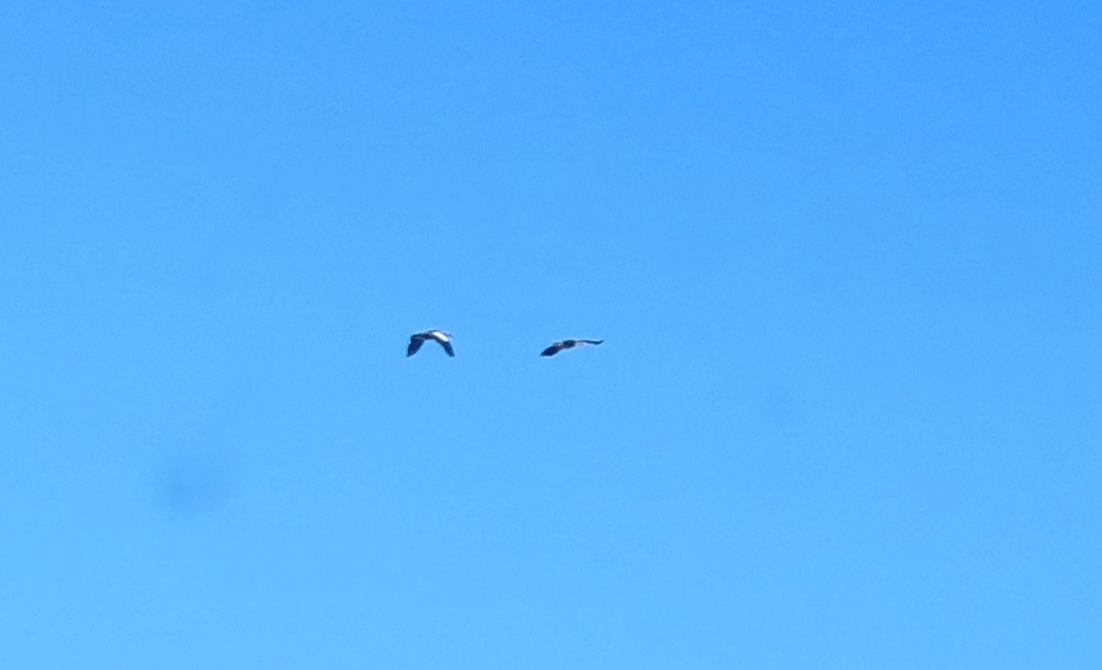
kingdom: Animalia
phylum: Chordata
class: Aves
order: Anseriformes
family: Anatidae
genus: Alopochen
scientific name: Alopochen aegyptiaca
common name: Egyptian goose
